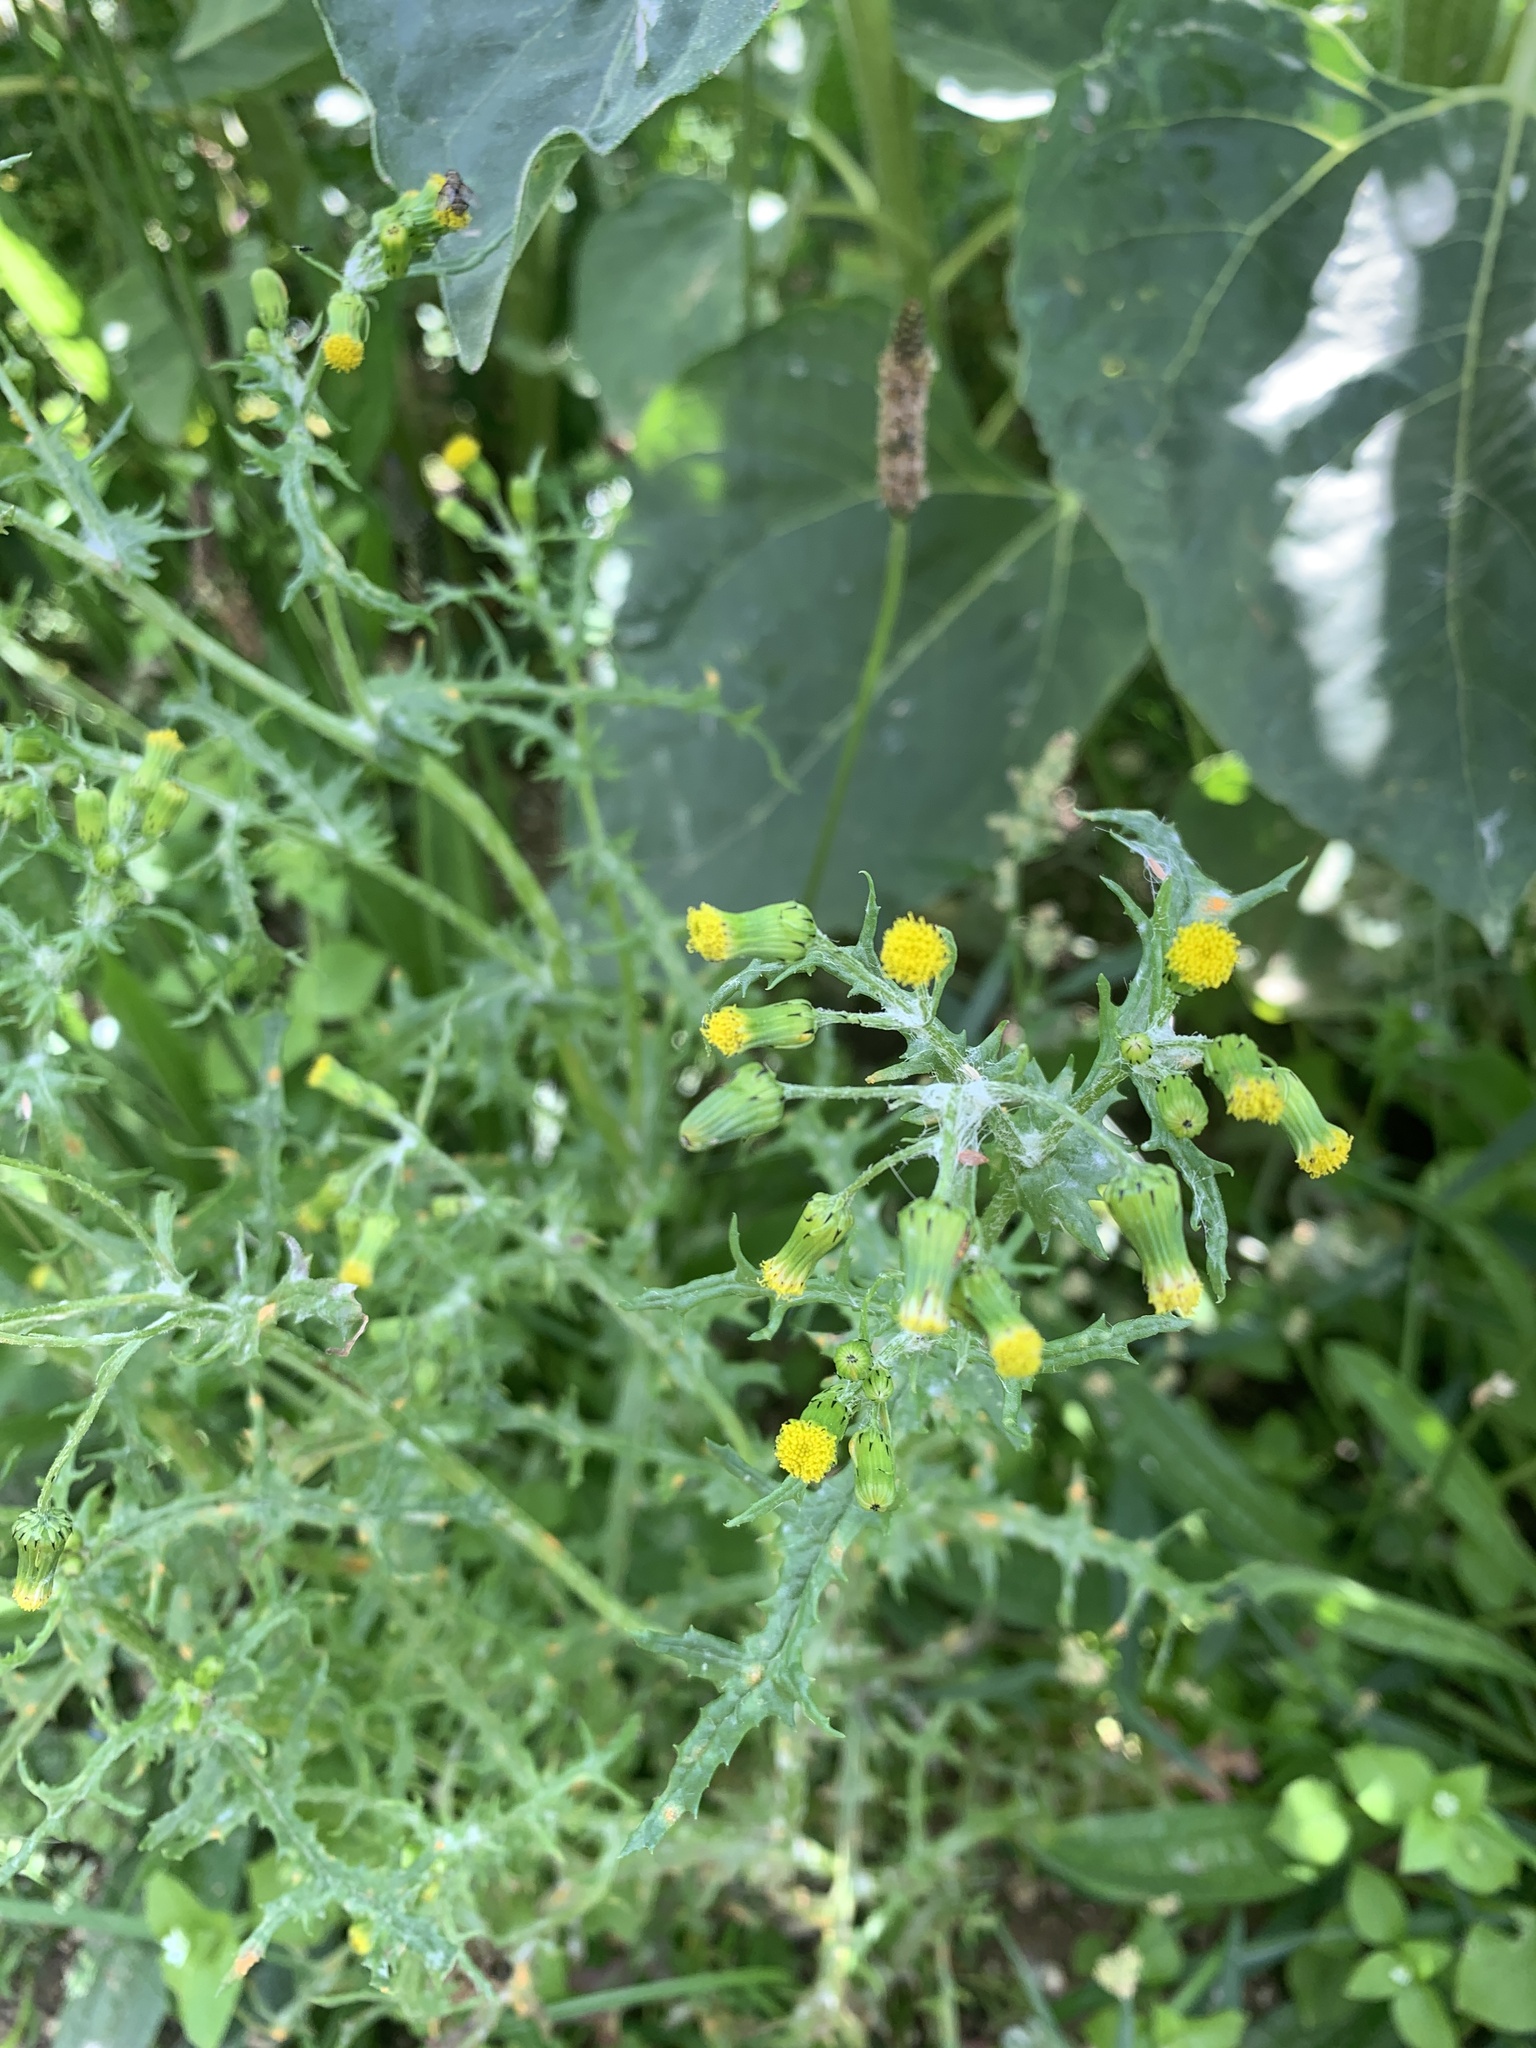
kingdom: Plantae
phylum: Tracheophyta
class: Magnoliopsida
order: Asterales
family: Asteraceae
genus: Senecio
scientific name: Senecio vulgaris
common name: Old-man-in-the-spring
